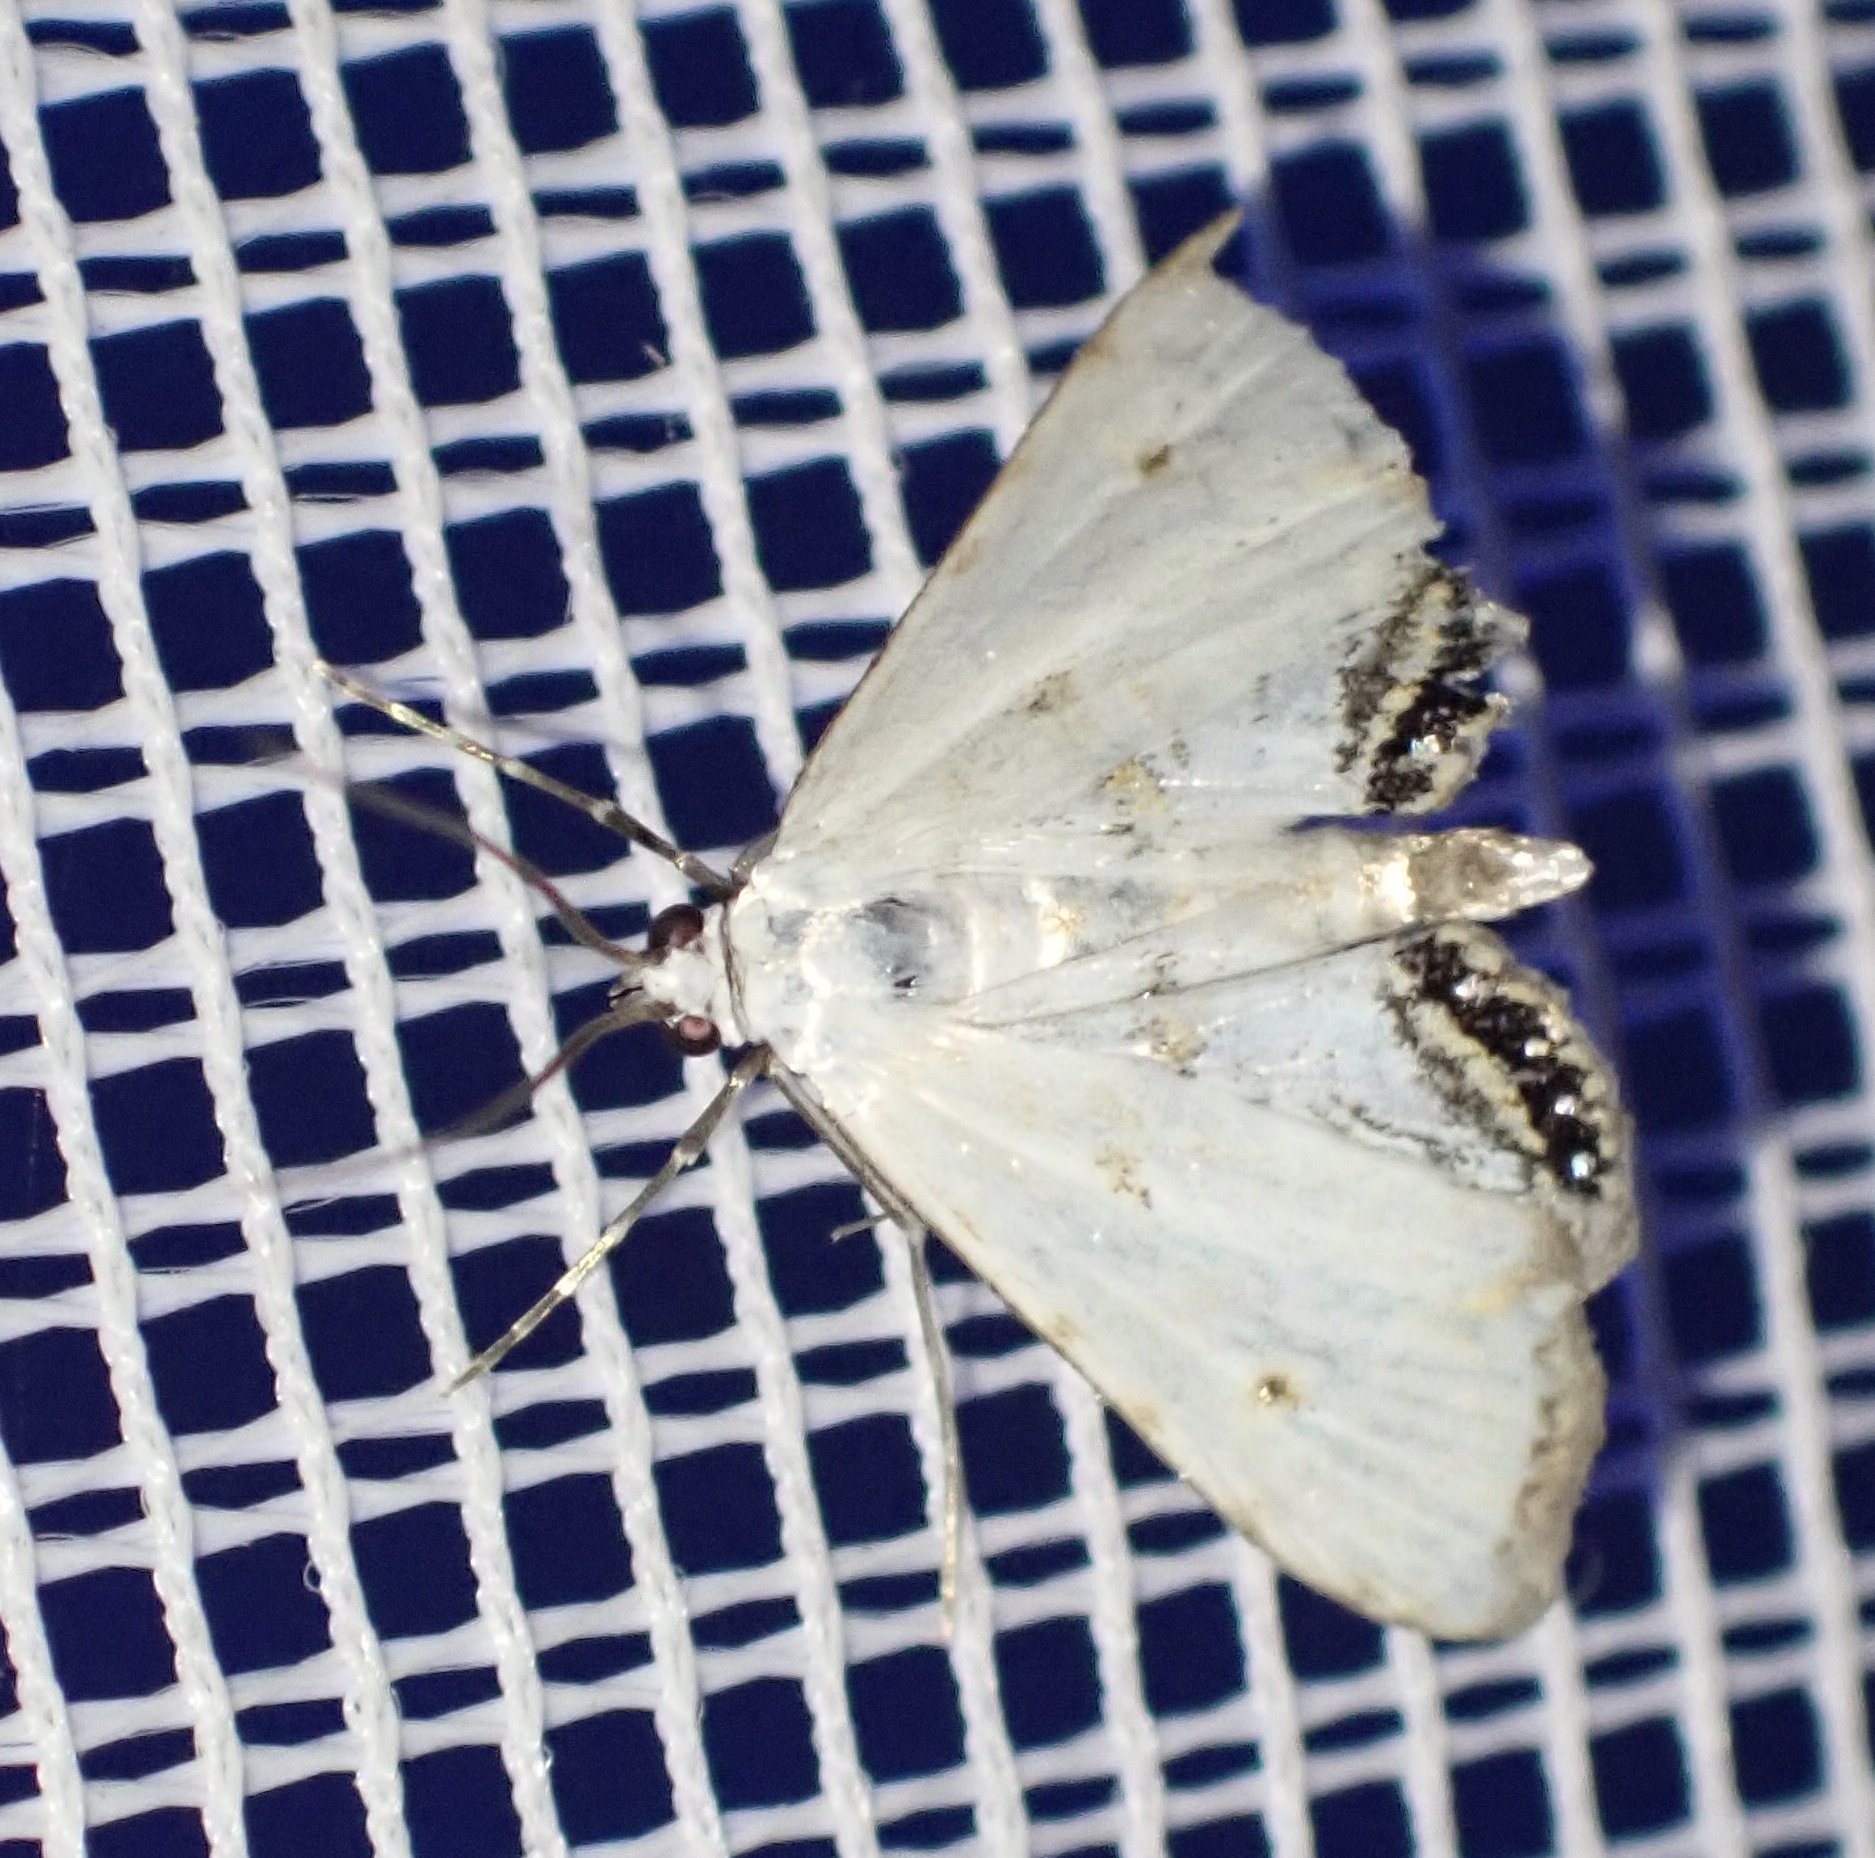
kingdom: Animalia
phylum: Arthropoda
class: Insecta
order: Lepidoptera
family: Crambidae
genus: Cataclysta
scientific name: Cataclysta lemnata
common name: Small china-mark
